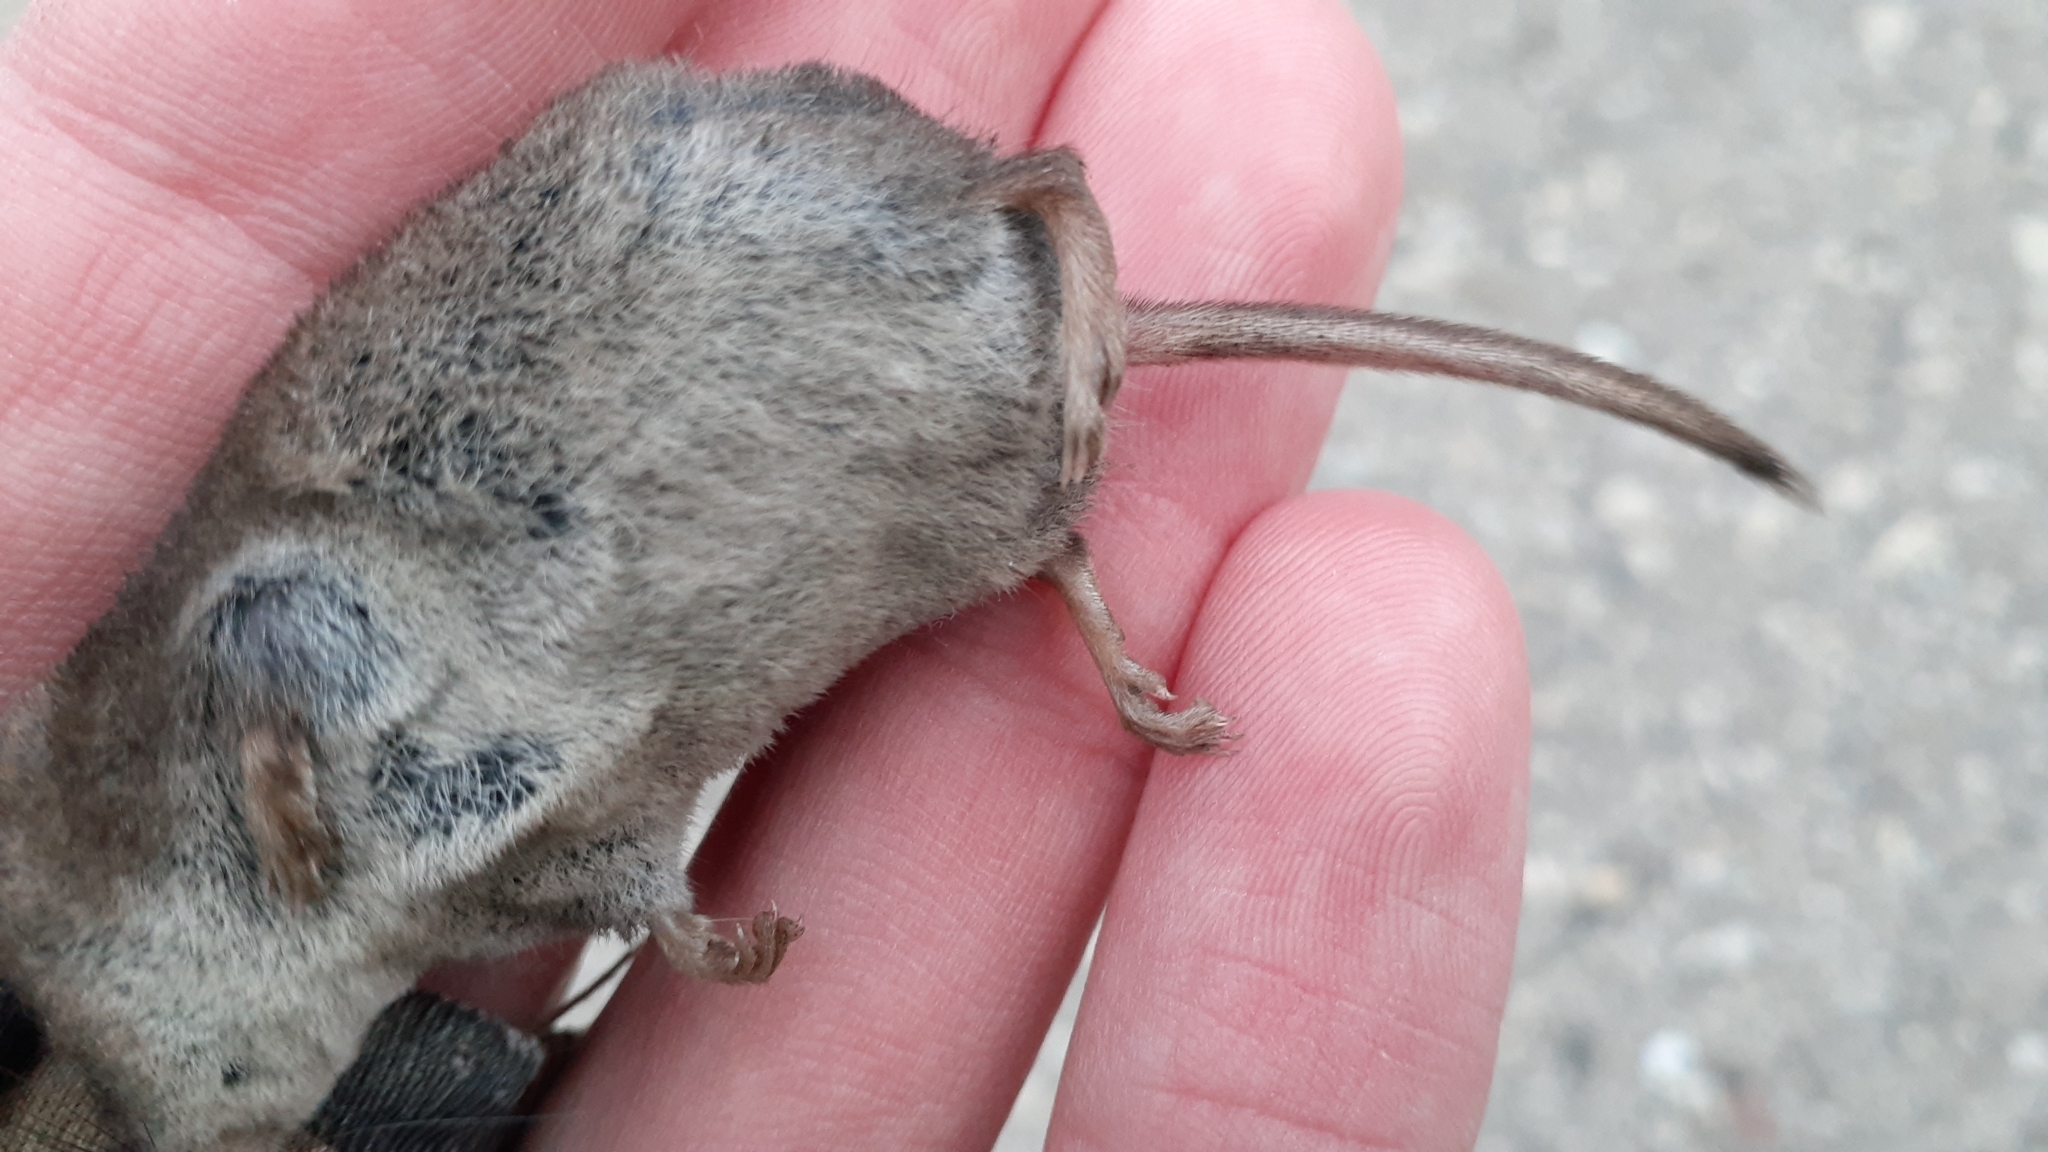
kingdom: Animalia
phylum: Chordata
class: Mammalia
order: Soricomorpha
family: Soricidae
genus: Sorex
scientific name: Sorex cinereus
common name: Cinereus shrew
